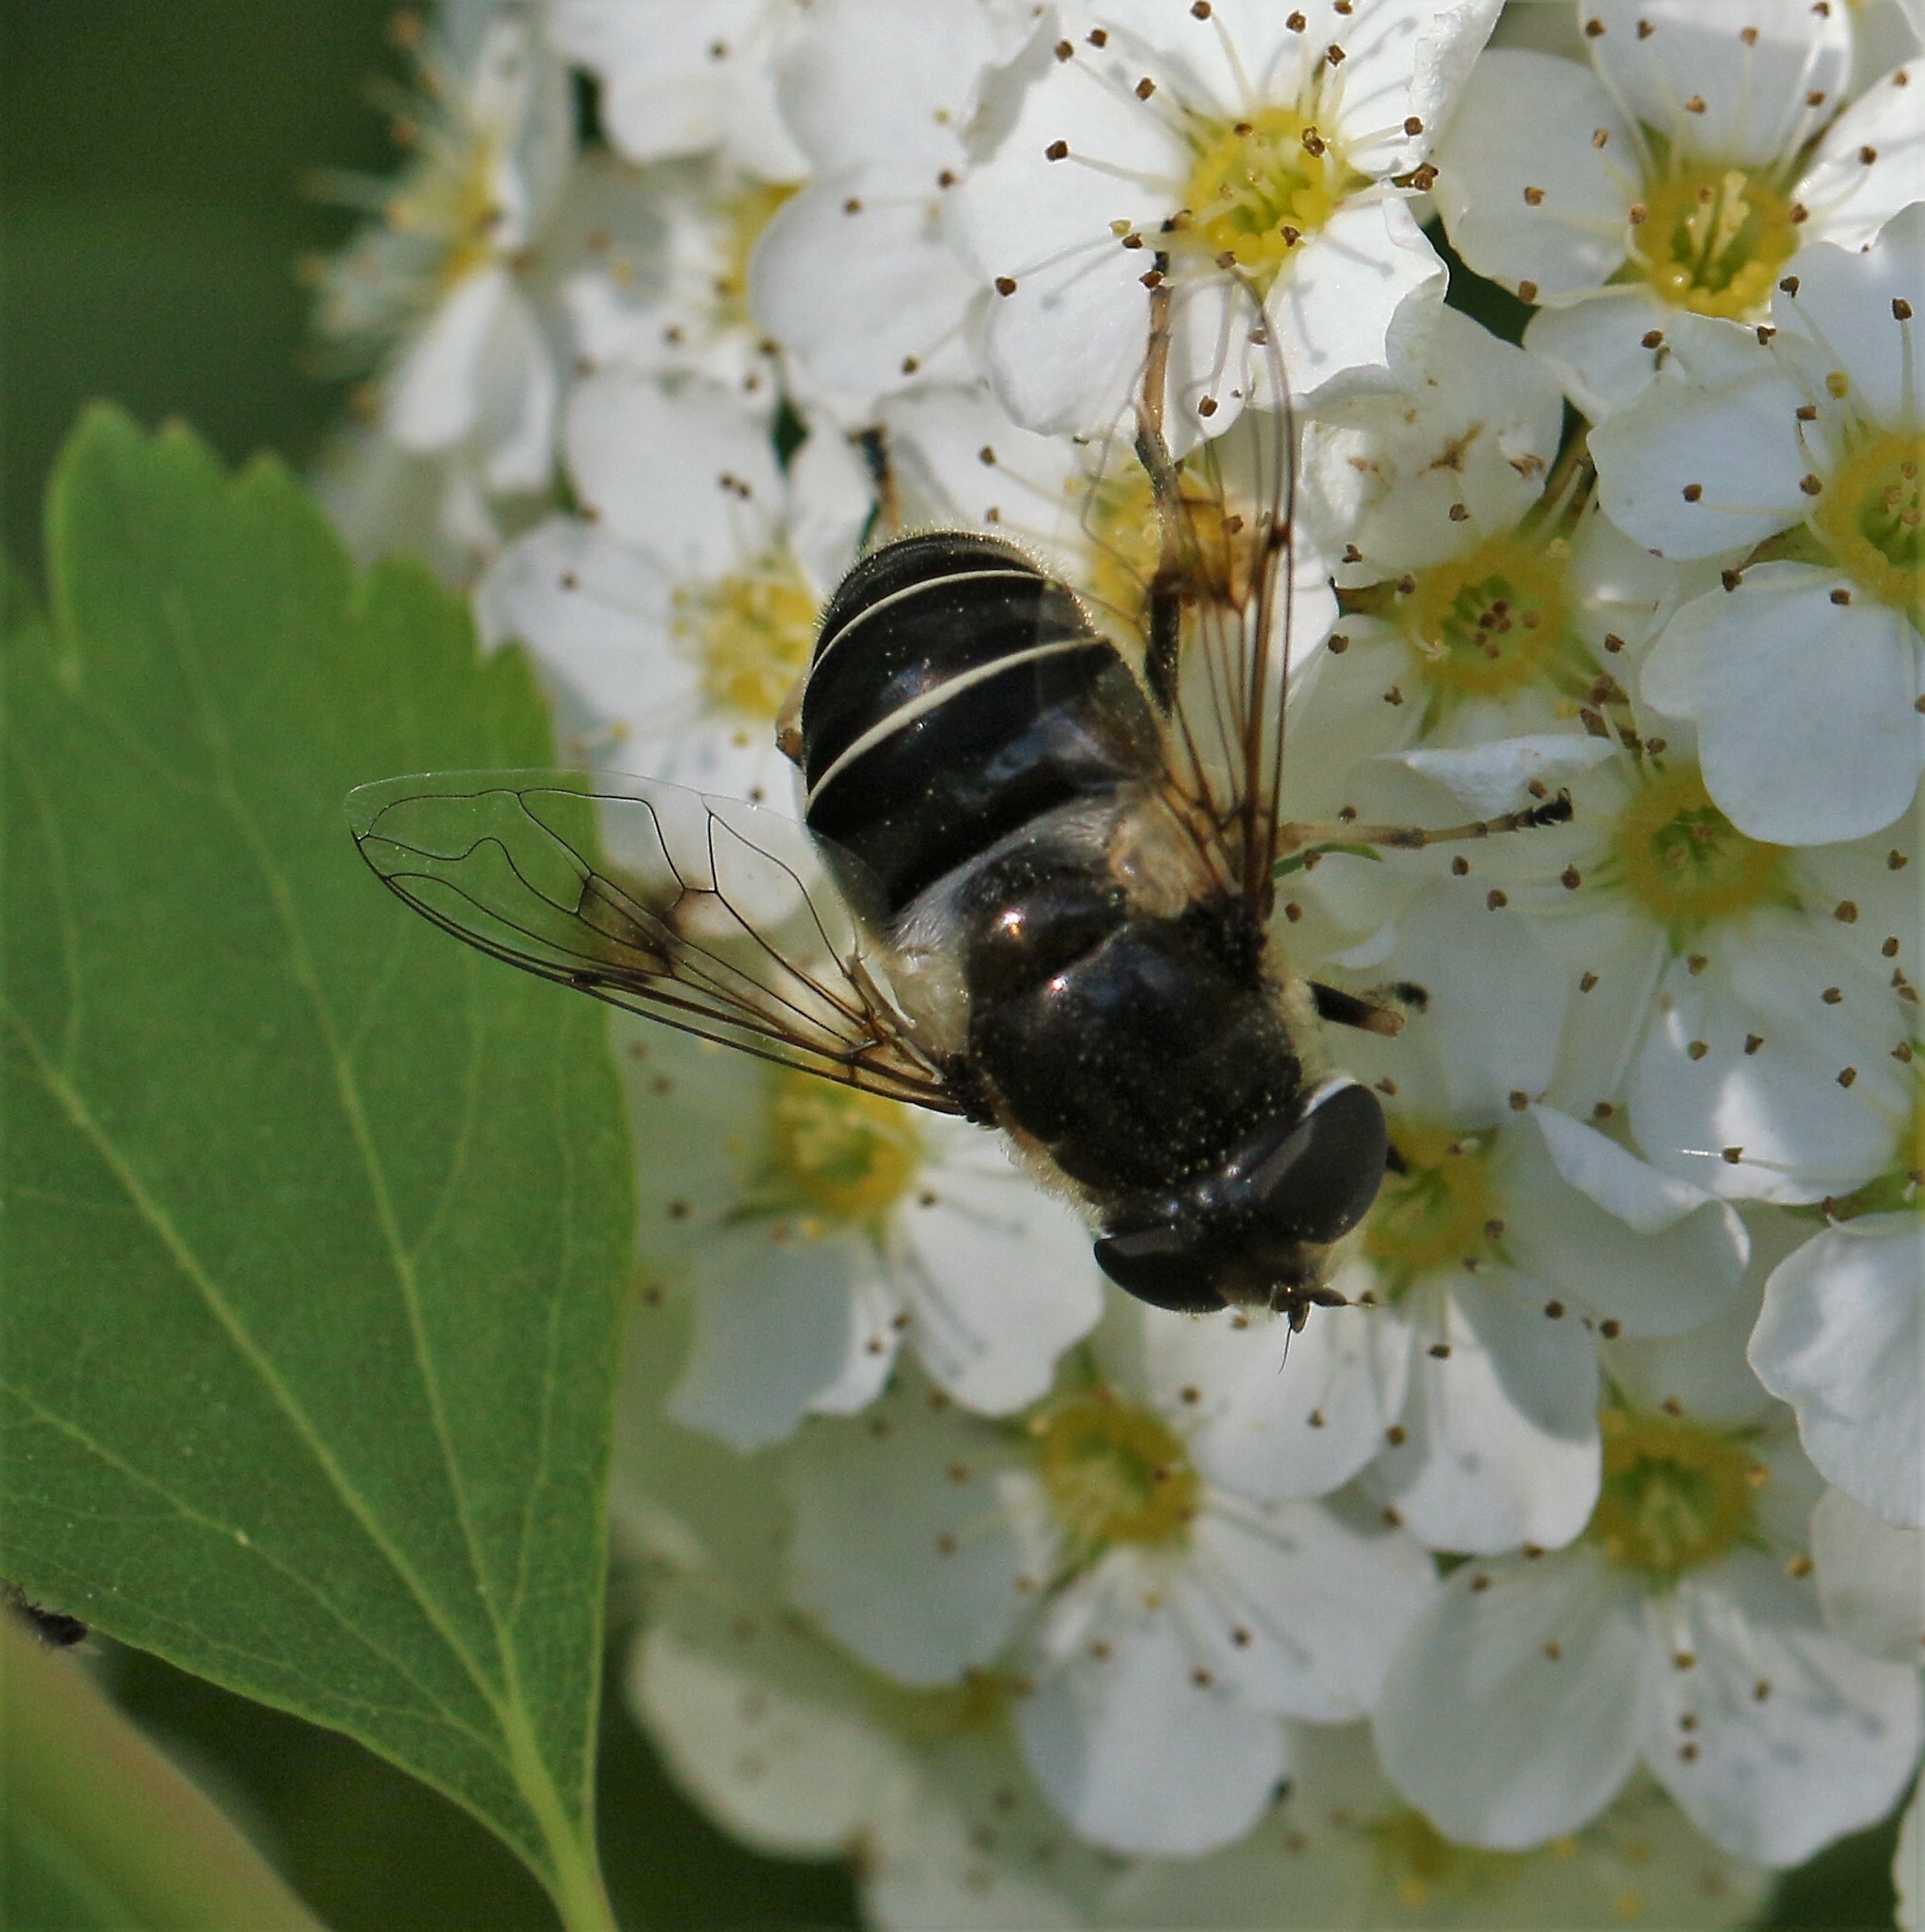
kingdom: Animalia
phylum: Arthropoda
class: Insecta
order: Diptera
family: Syrphidae
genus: Eristalis
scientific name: Eristalis obscura
